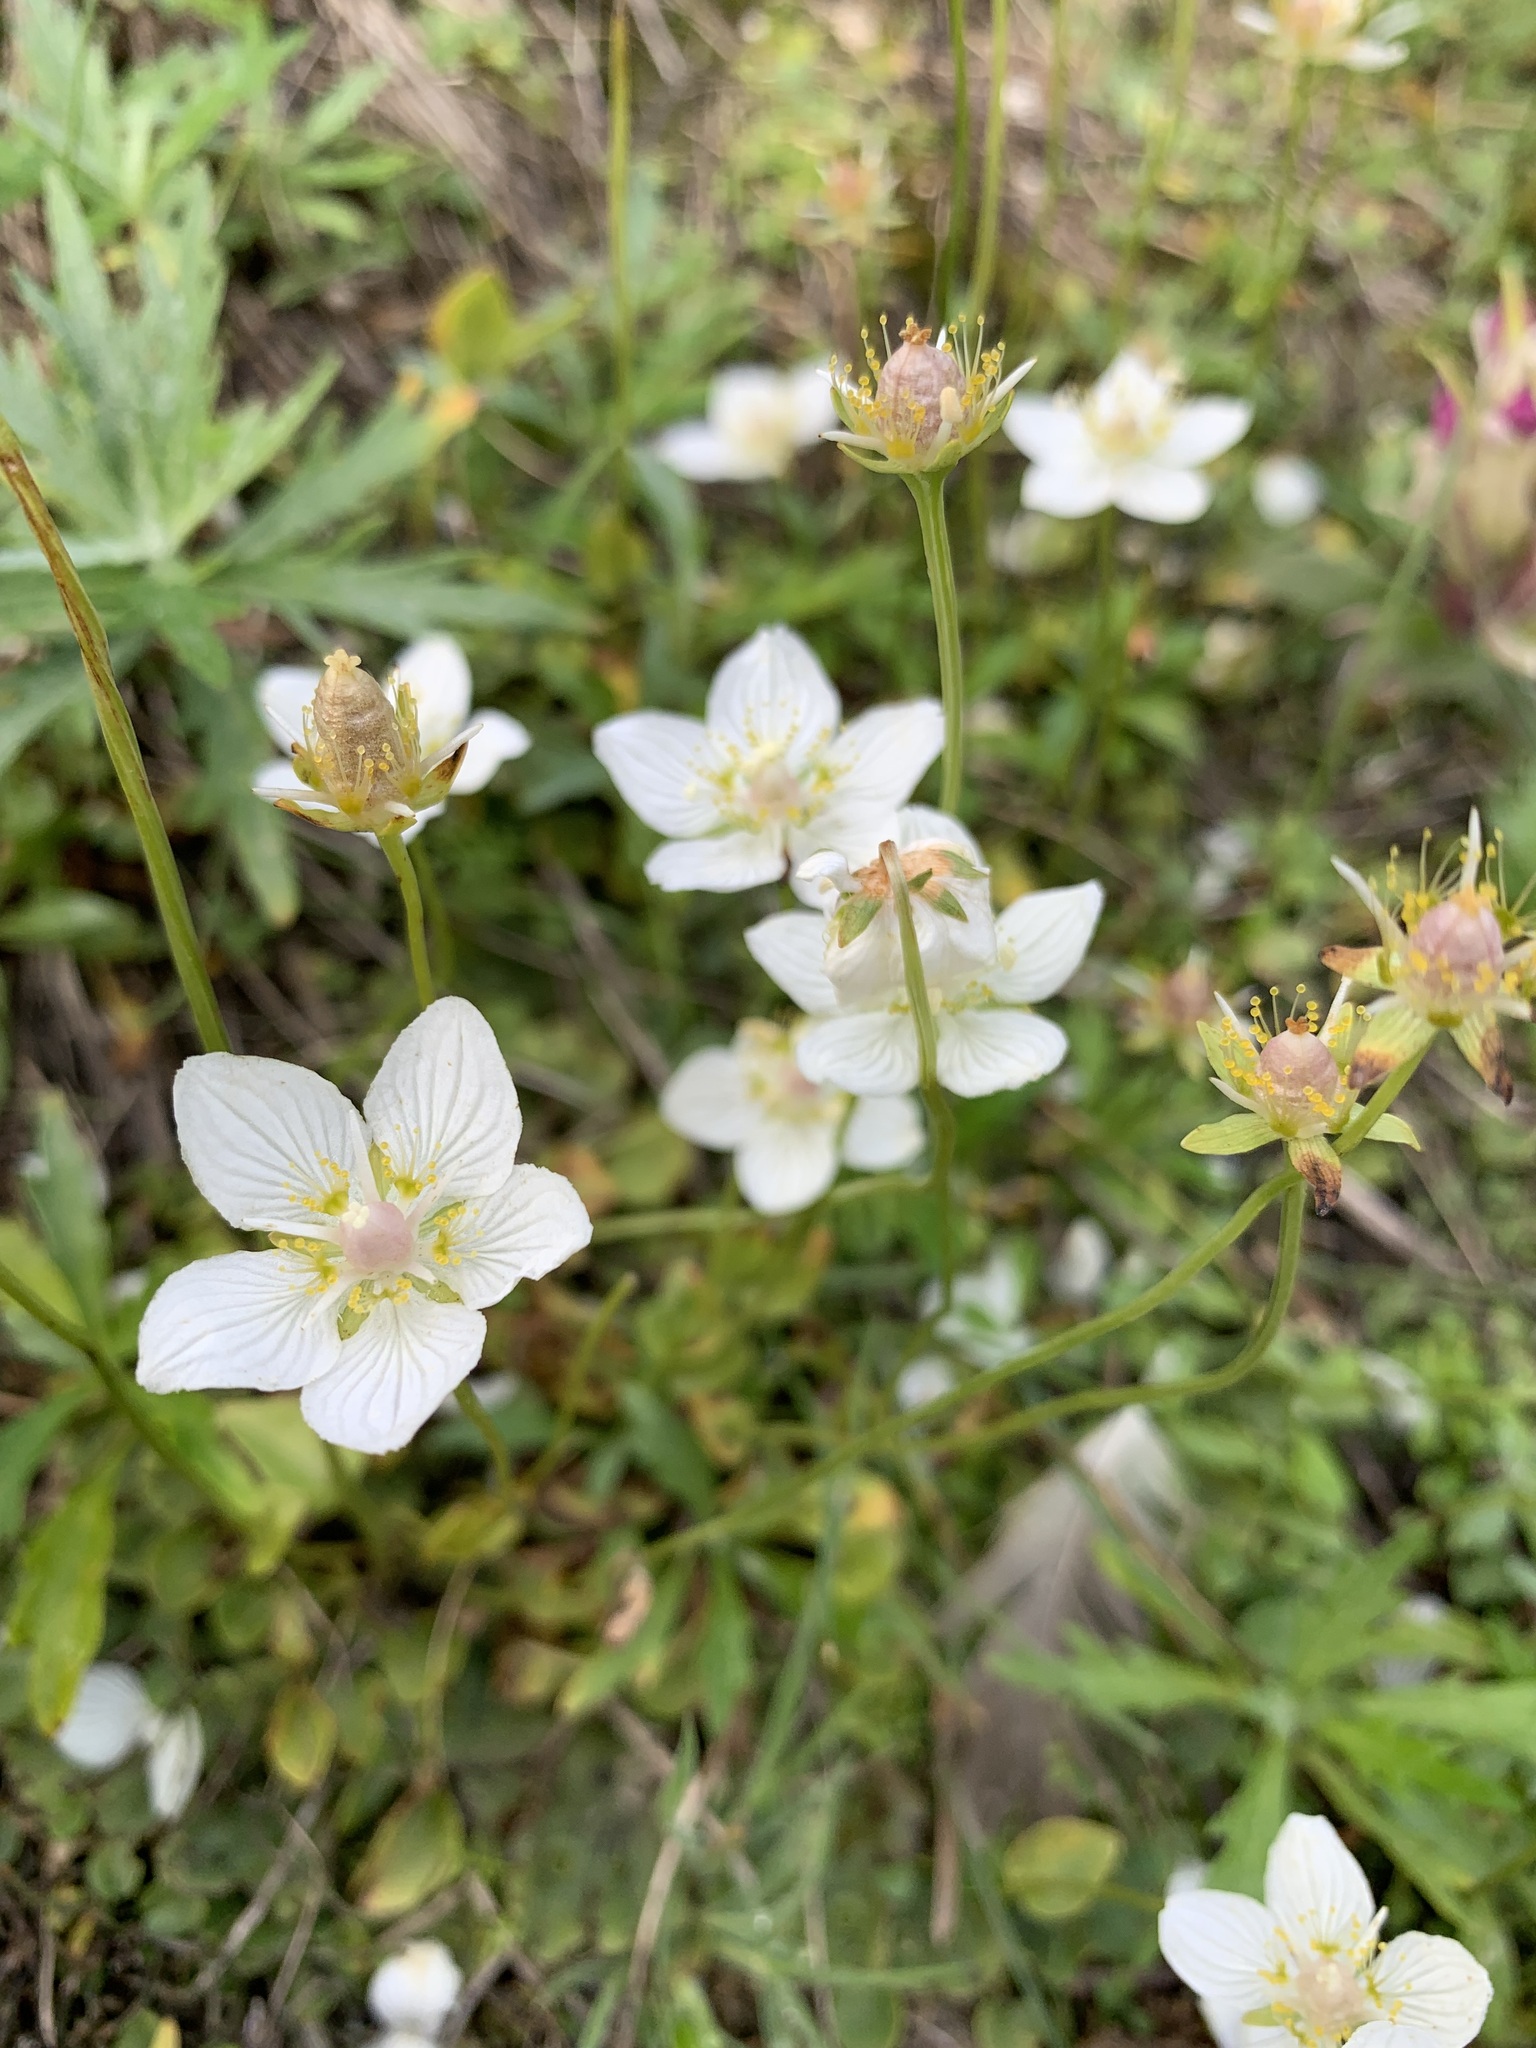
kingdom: Plantae
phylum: Tracheophyta
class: Magnoliopsida
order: Celastrales
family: Parnassiaceae
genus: Parnassia
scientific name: Parnassia palustris
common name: Grass-of-parnassus
